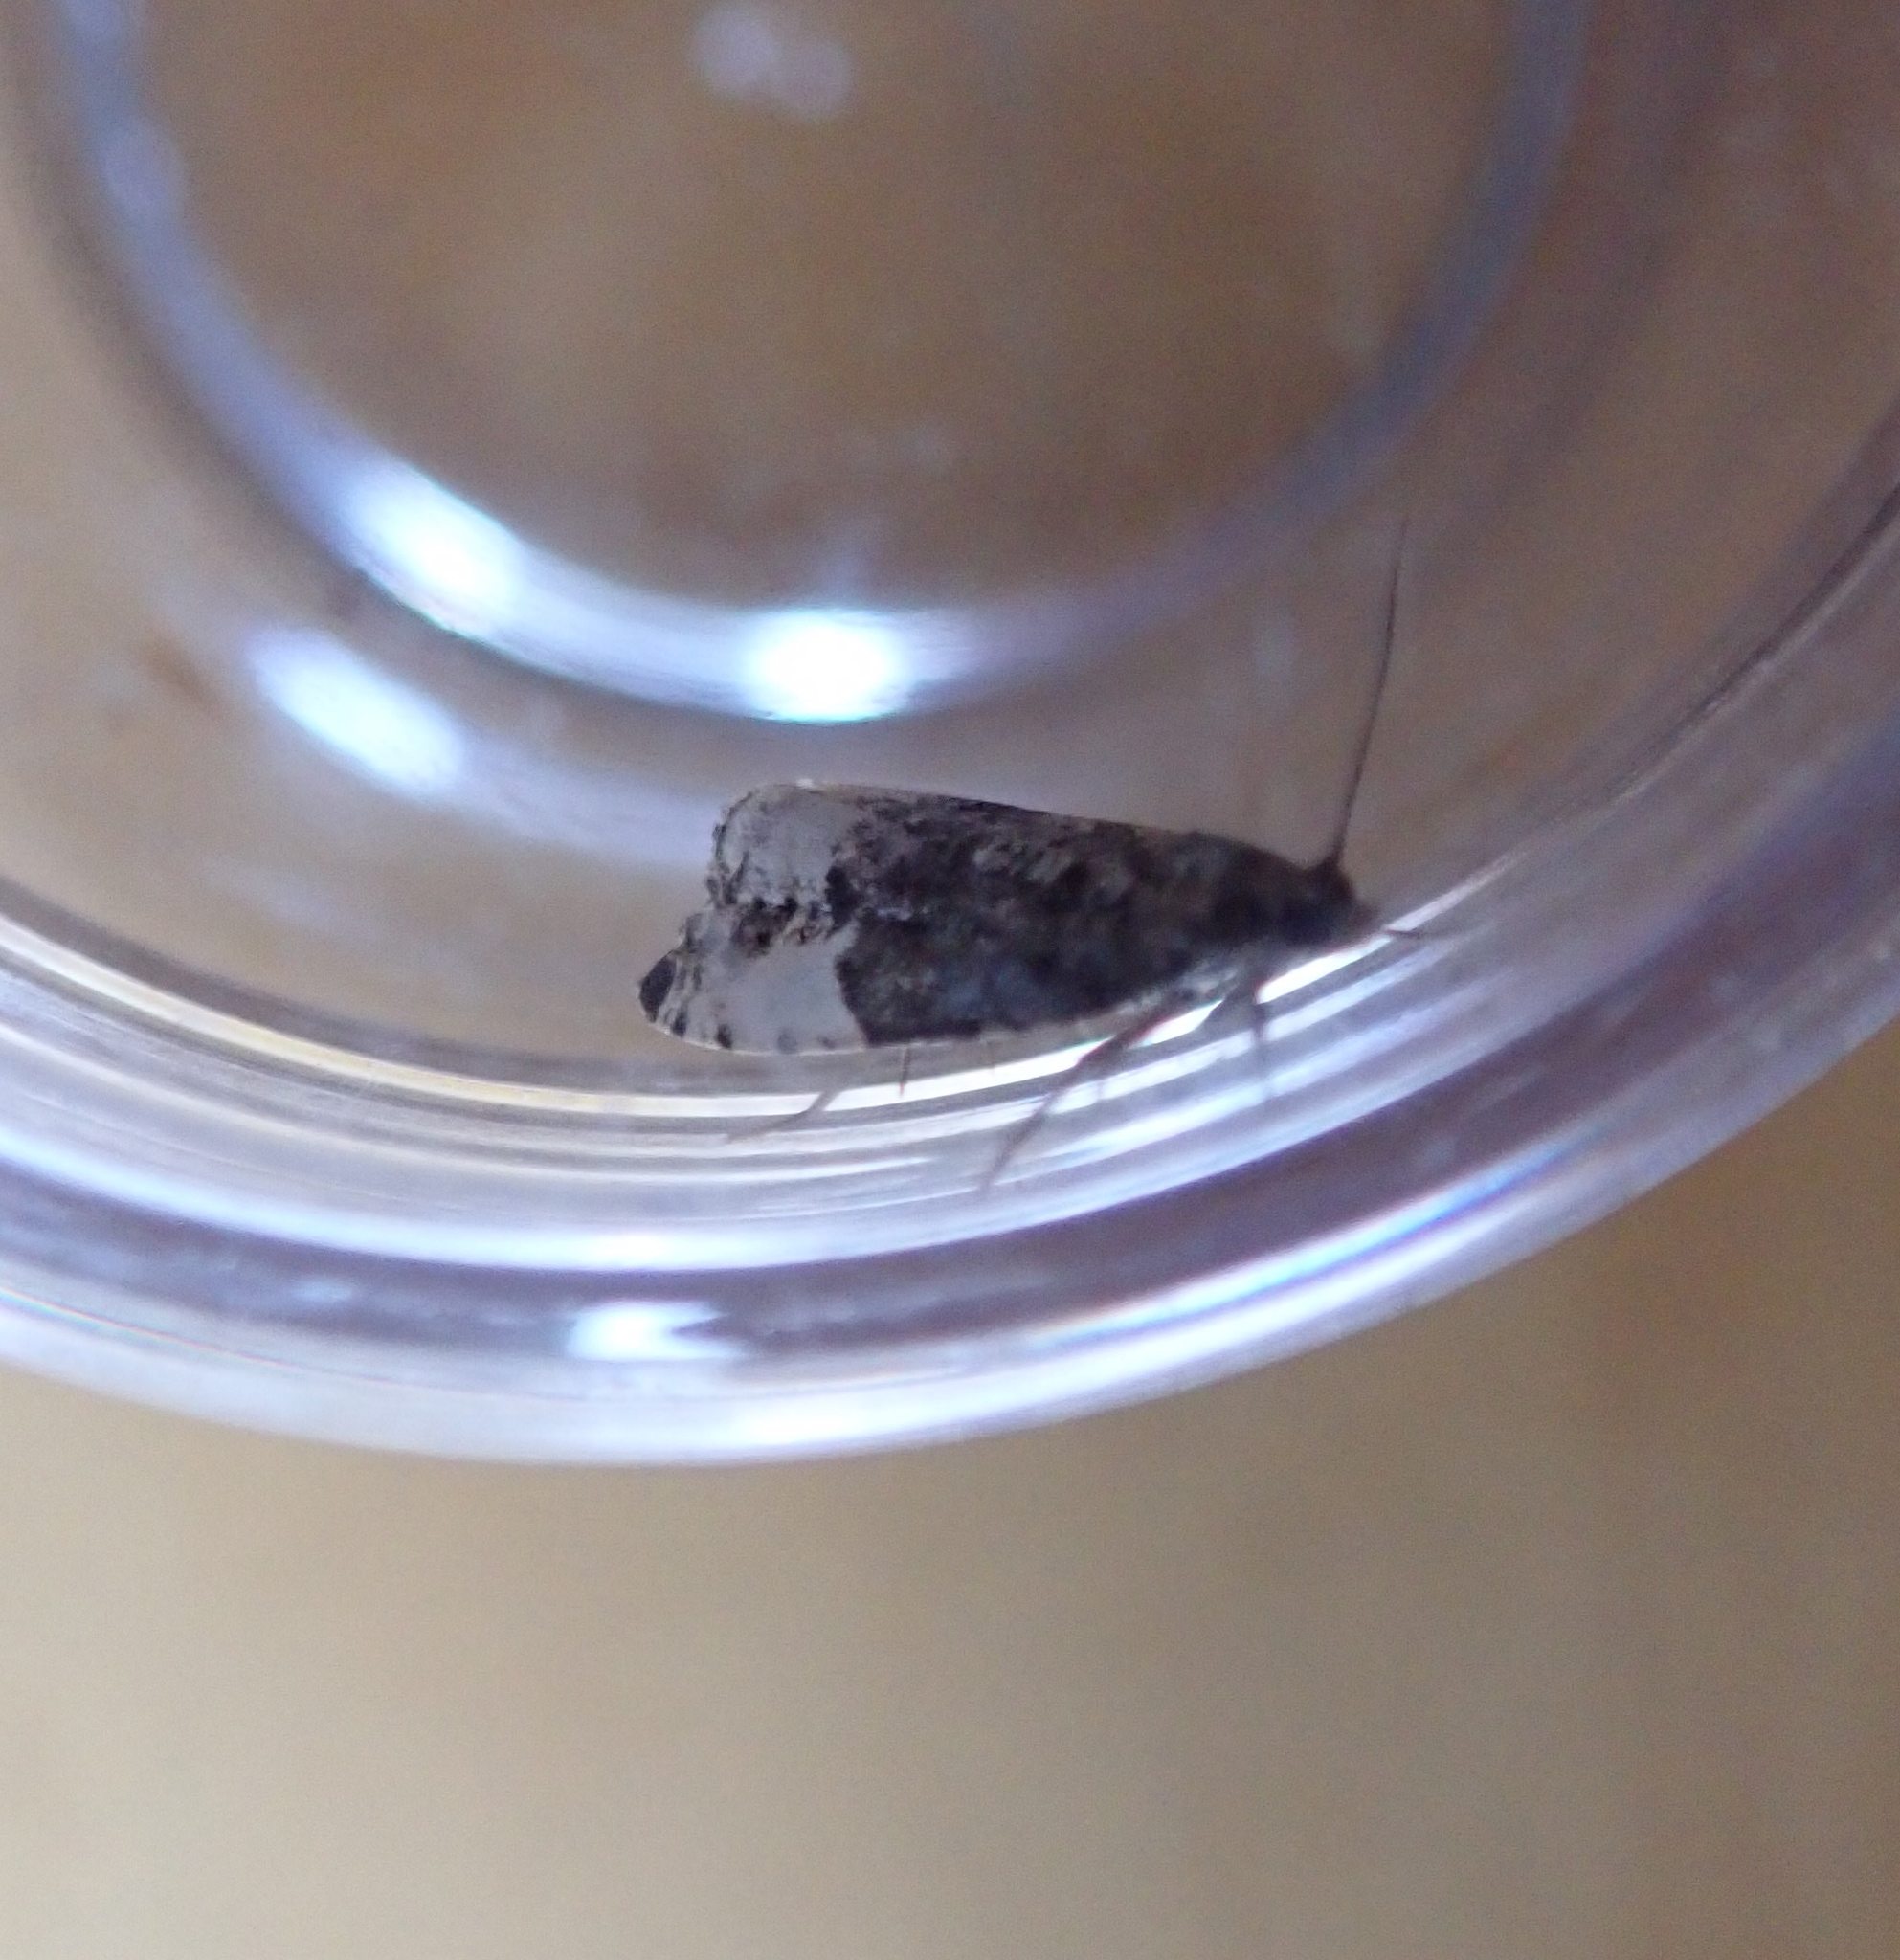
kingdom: Animalia
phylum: Arthropoda
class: Insecta
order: Lepidoptera
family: Tortricidae
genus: Hedya
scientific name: Hedya pruniana
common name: Plum tortrix
